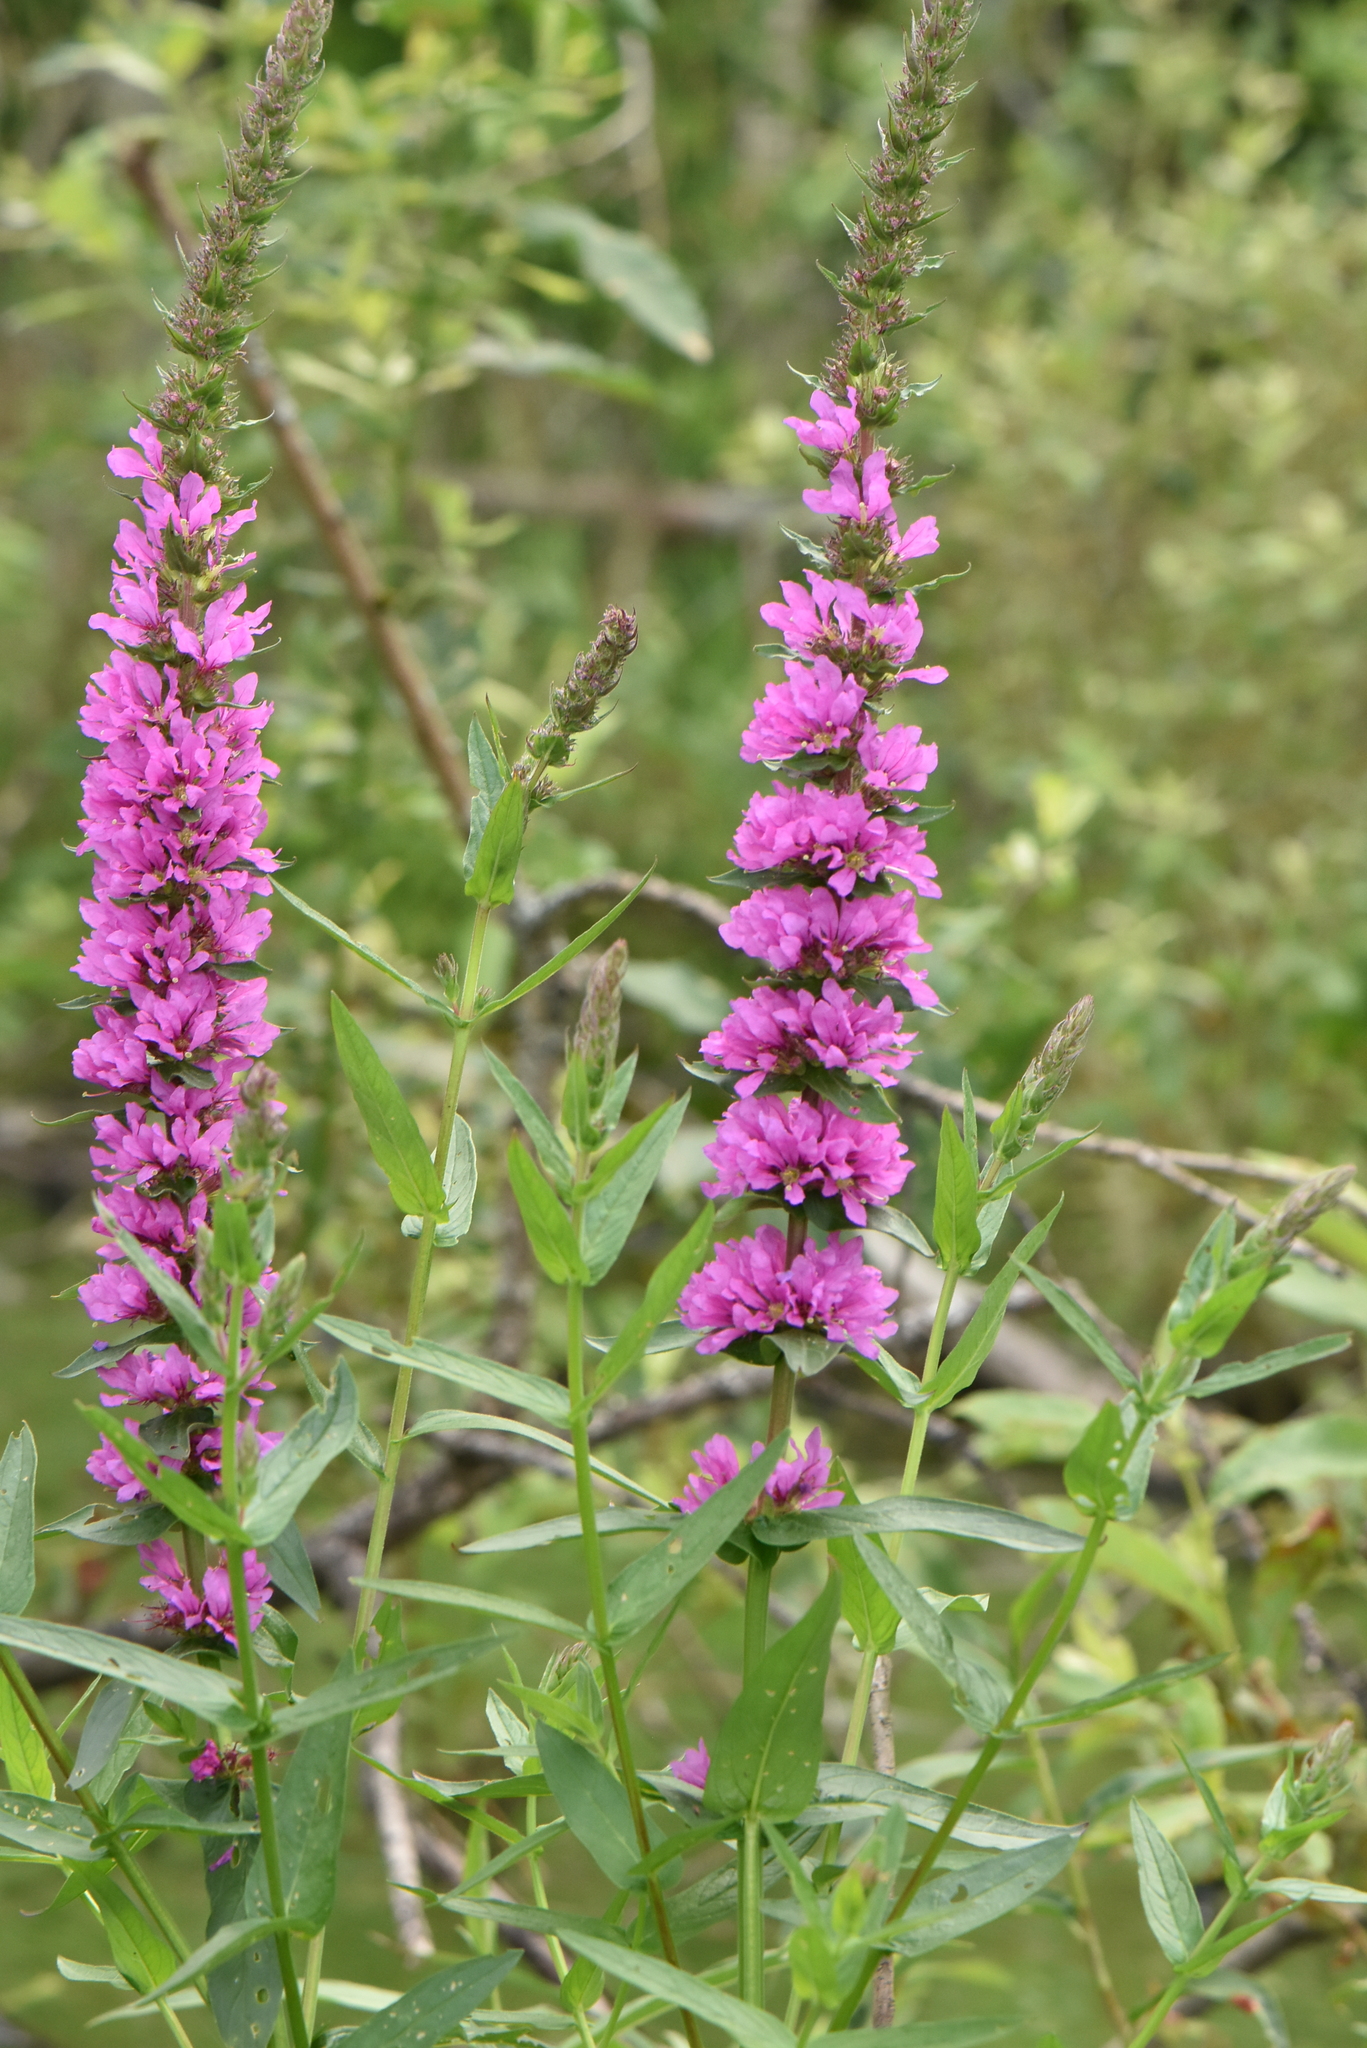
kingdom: Plantae
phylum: Tracheophyta
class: Magnoliopsida
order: Myrtales
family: Lythraceae
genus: Lythrum
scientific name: Lythrum salicaria
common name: Purple loosestrife
